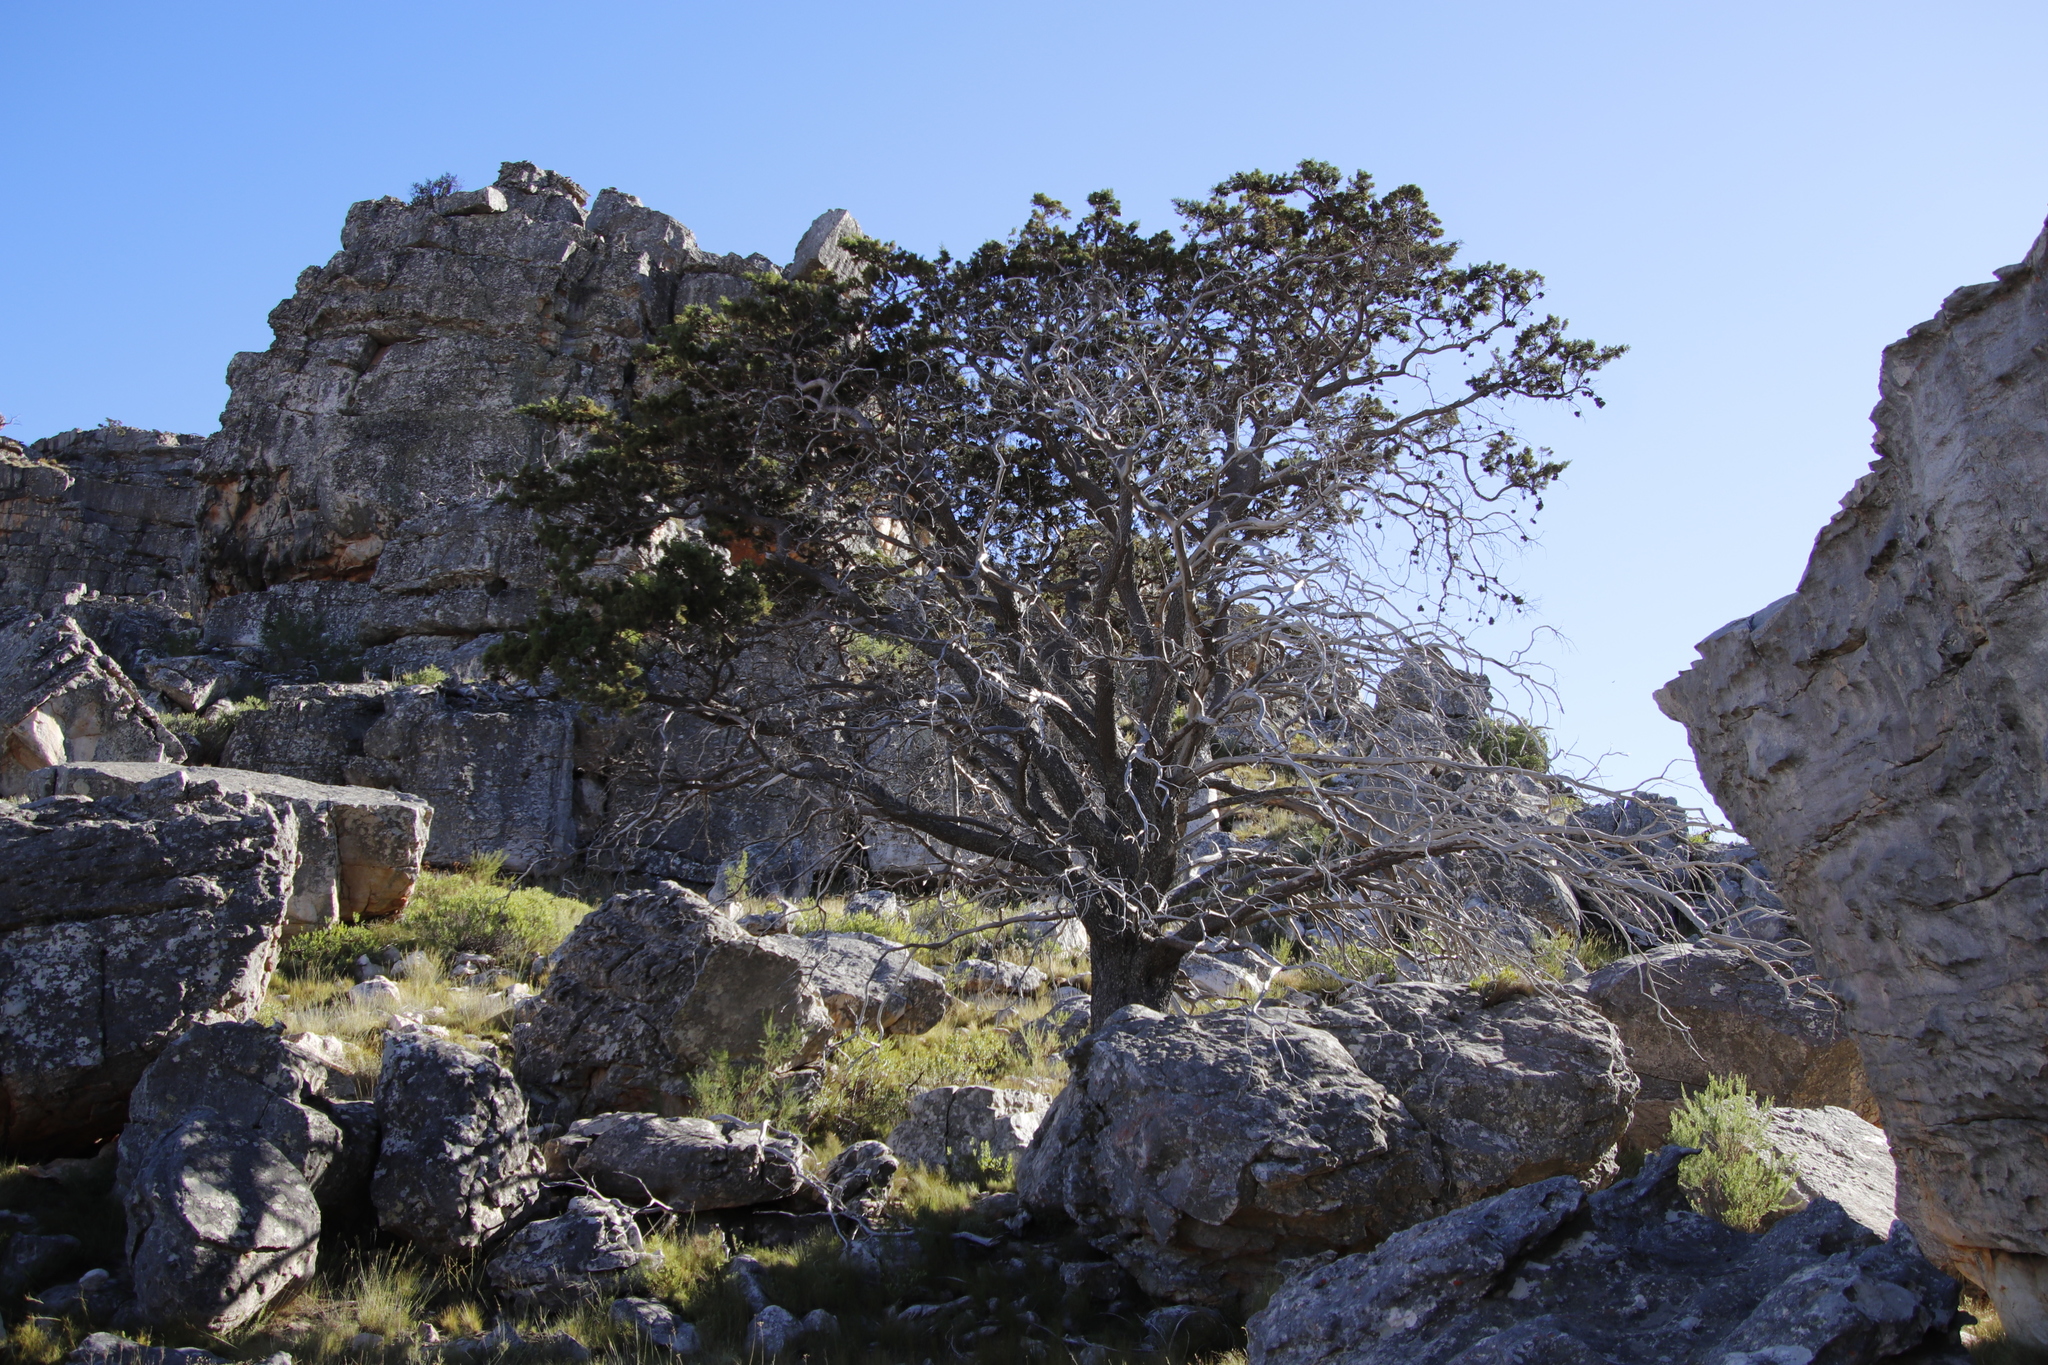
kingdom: Plantae
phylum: Tracheophyta
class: Pinopsida
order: Pinales
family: Cupressaceae
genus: Widdringtonia
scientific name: Widdringtonia nodiflora
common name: Cape cypress
